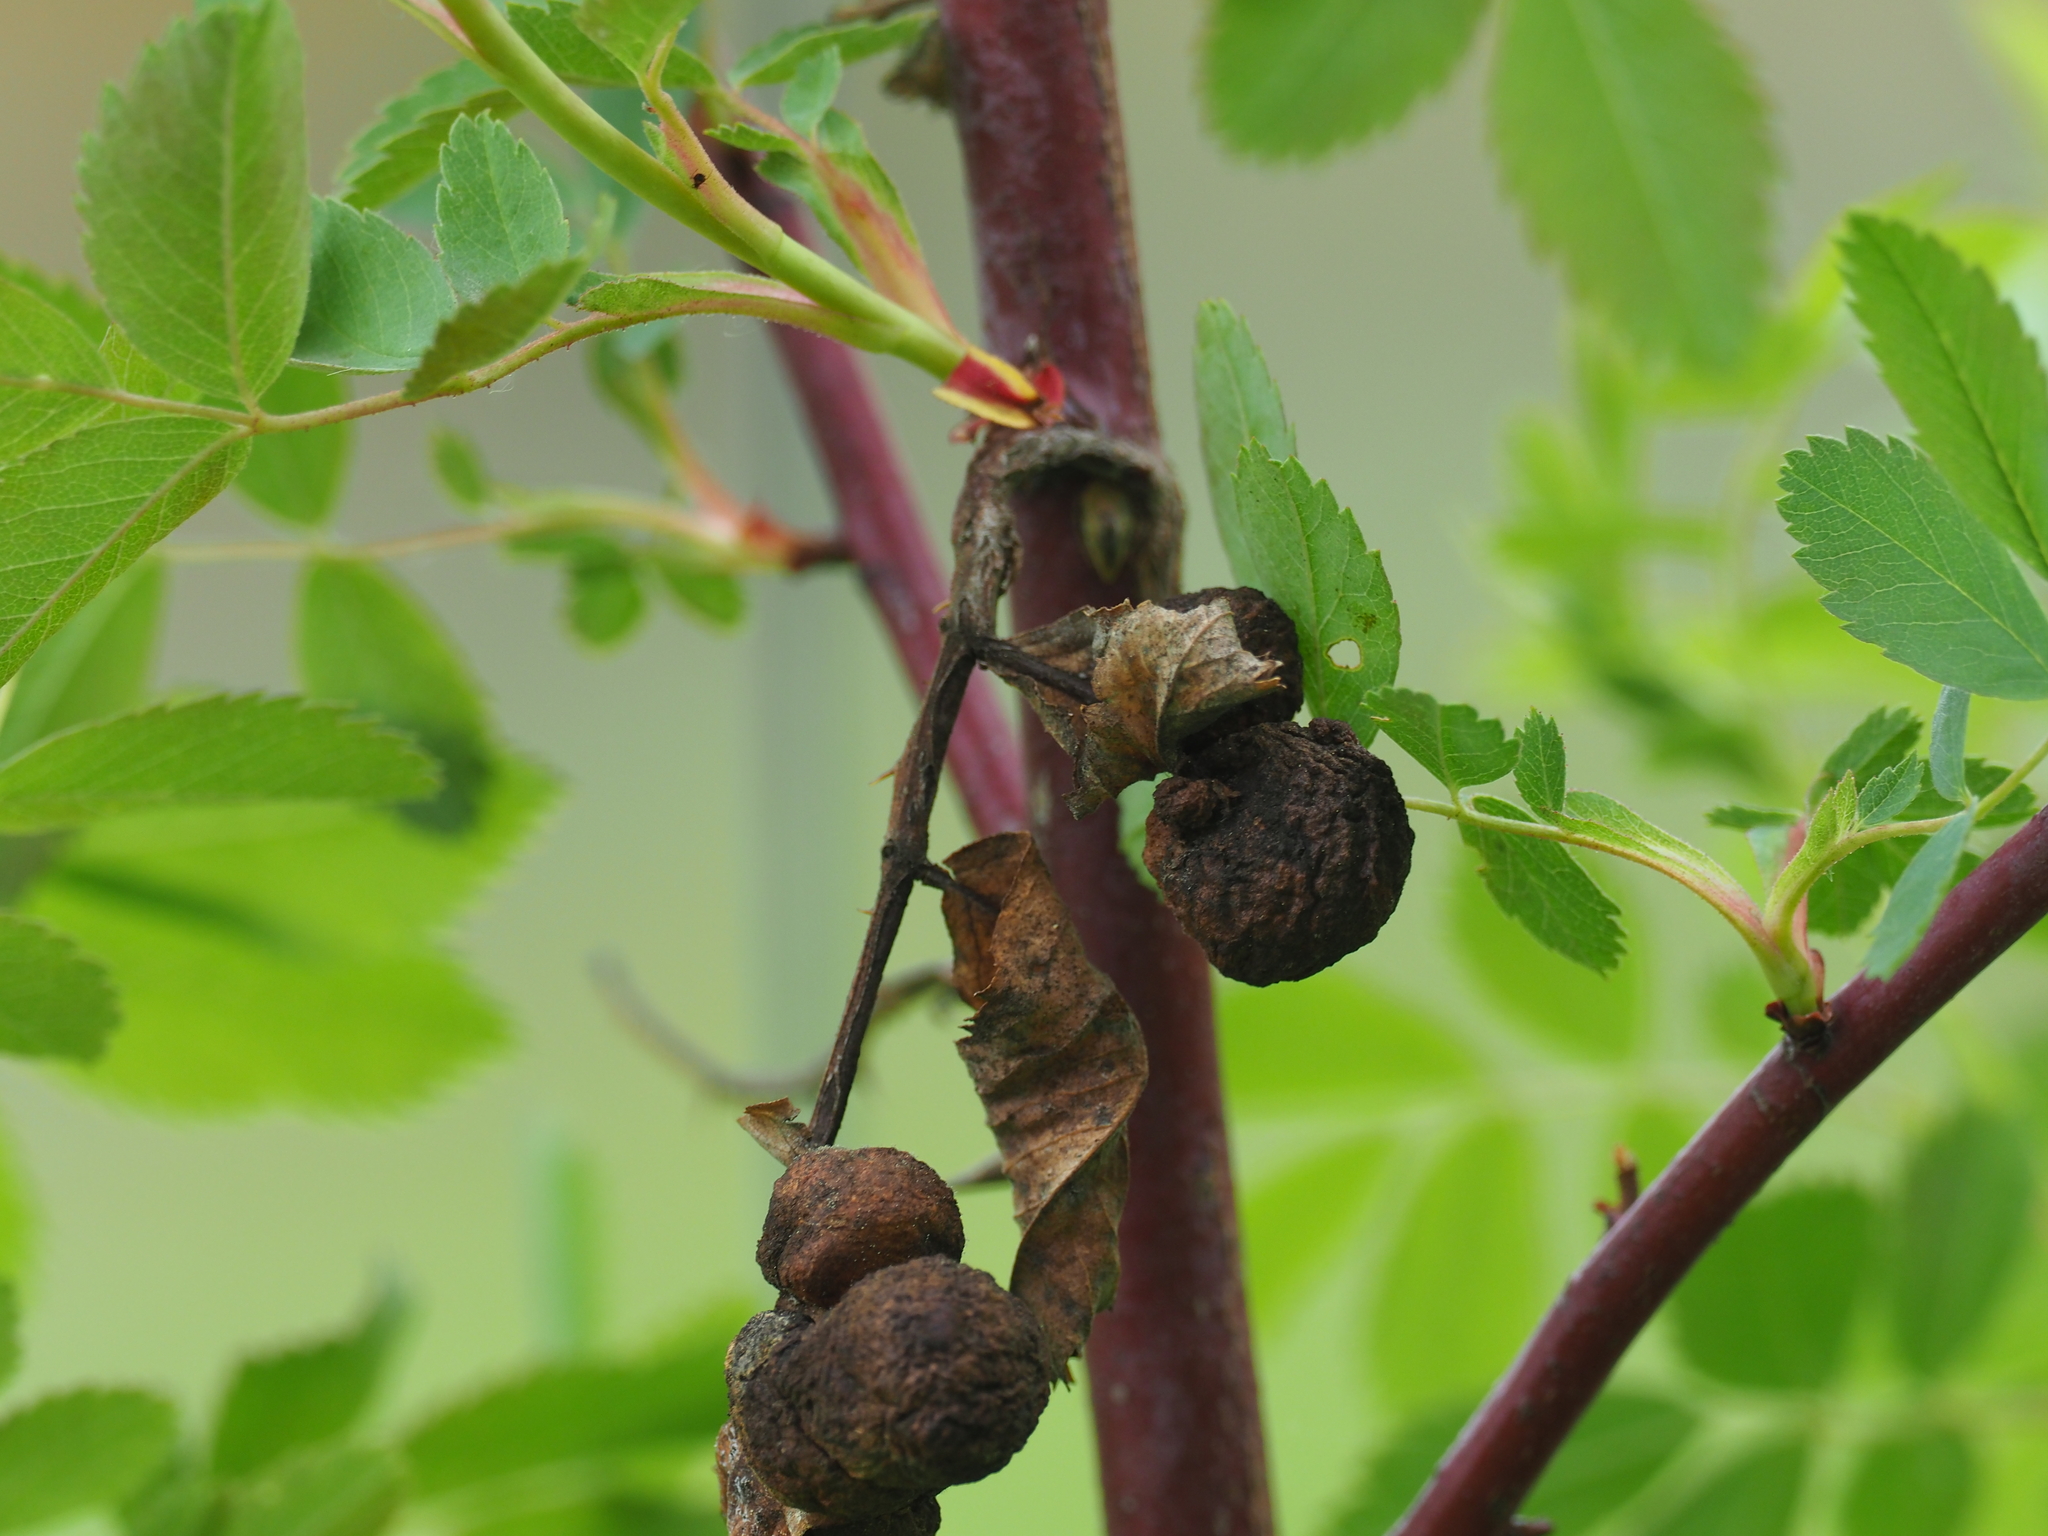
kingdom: Animalia
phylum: Arthropoda
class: Insecta
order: Hymenoptera
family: Cynipidae
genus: Diplolepis
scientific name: Diplolepis variabilis
